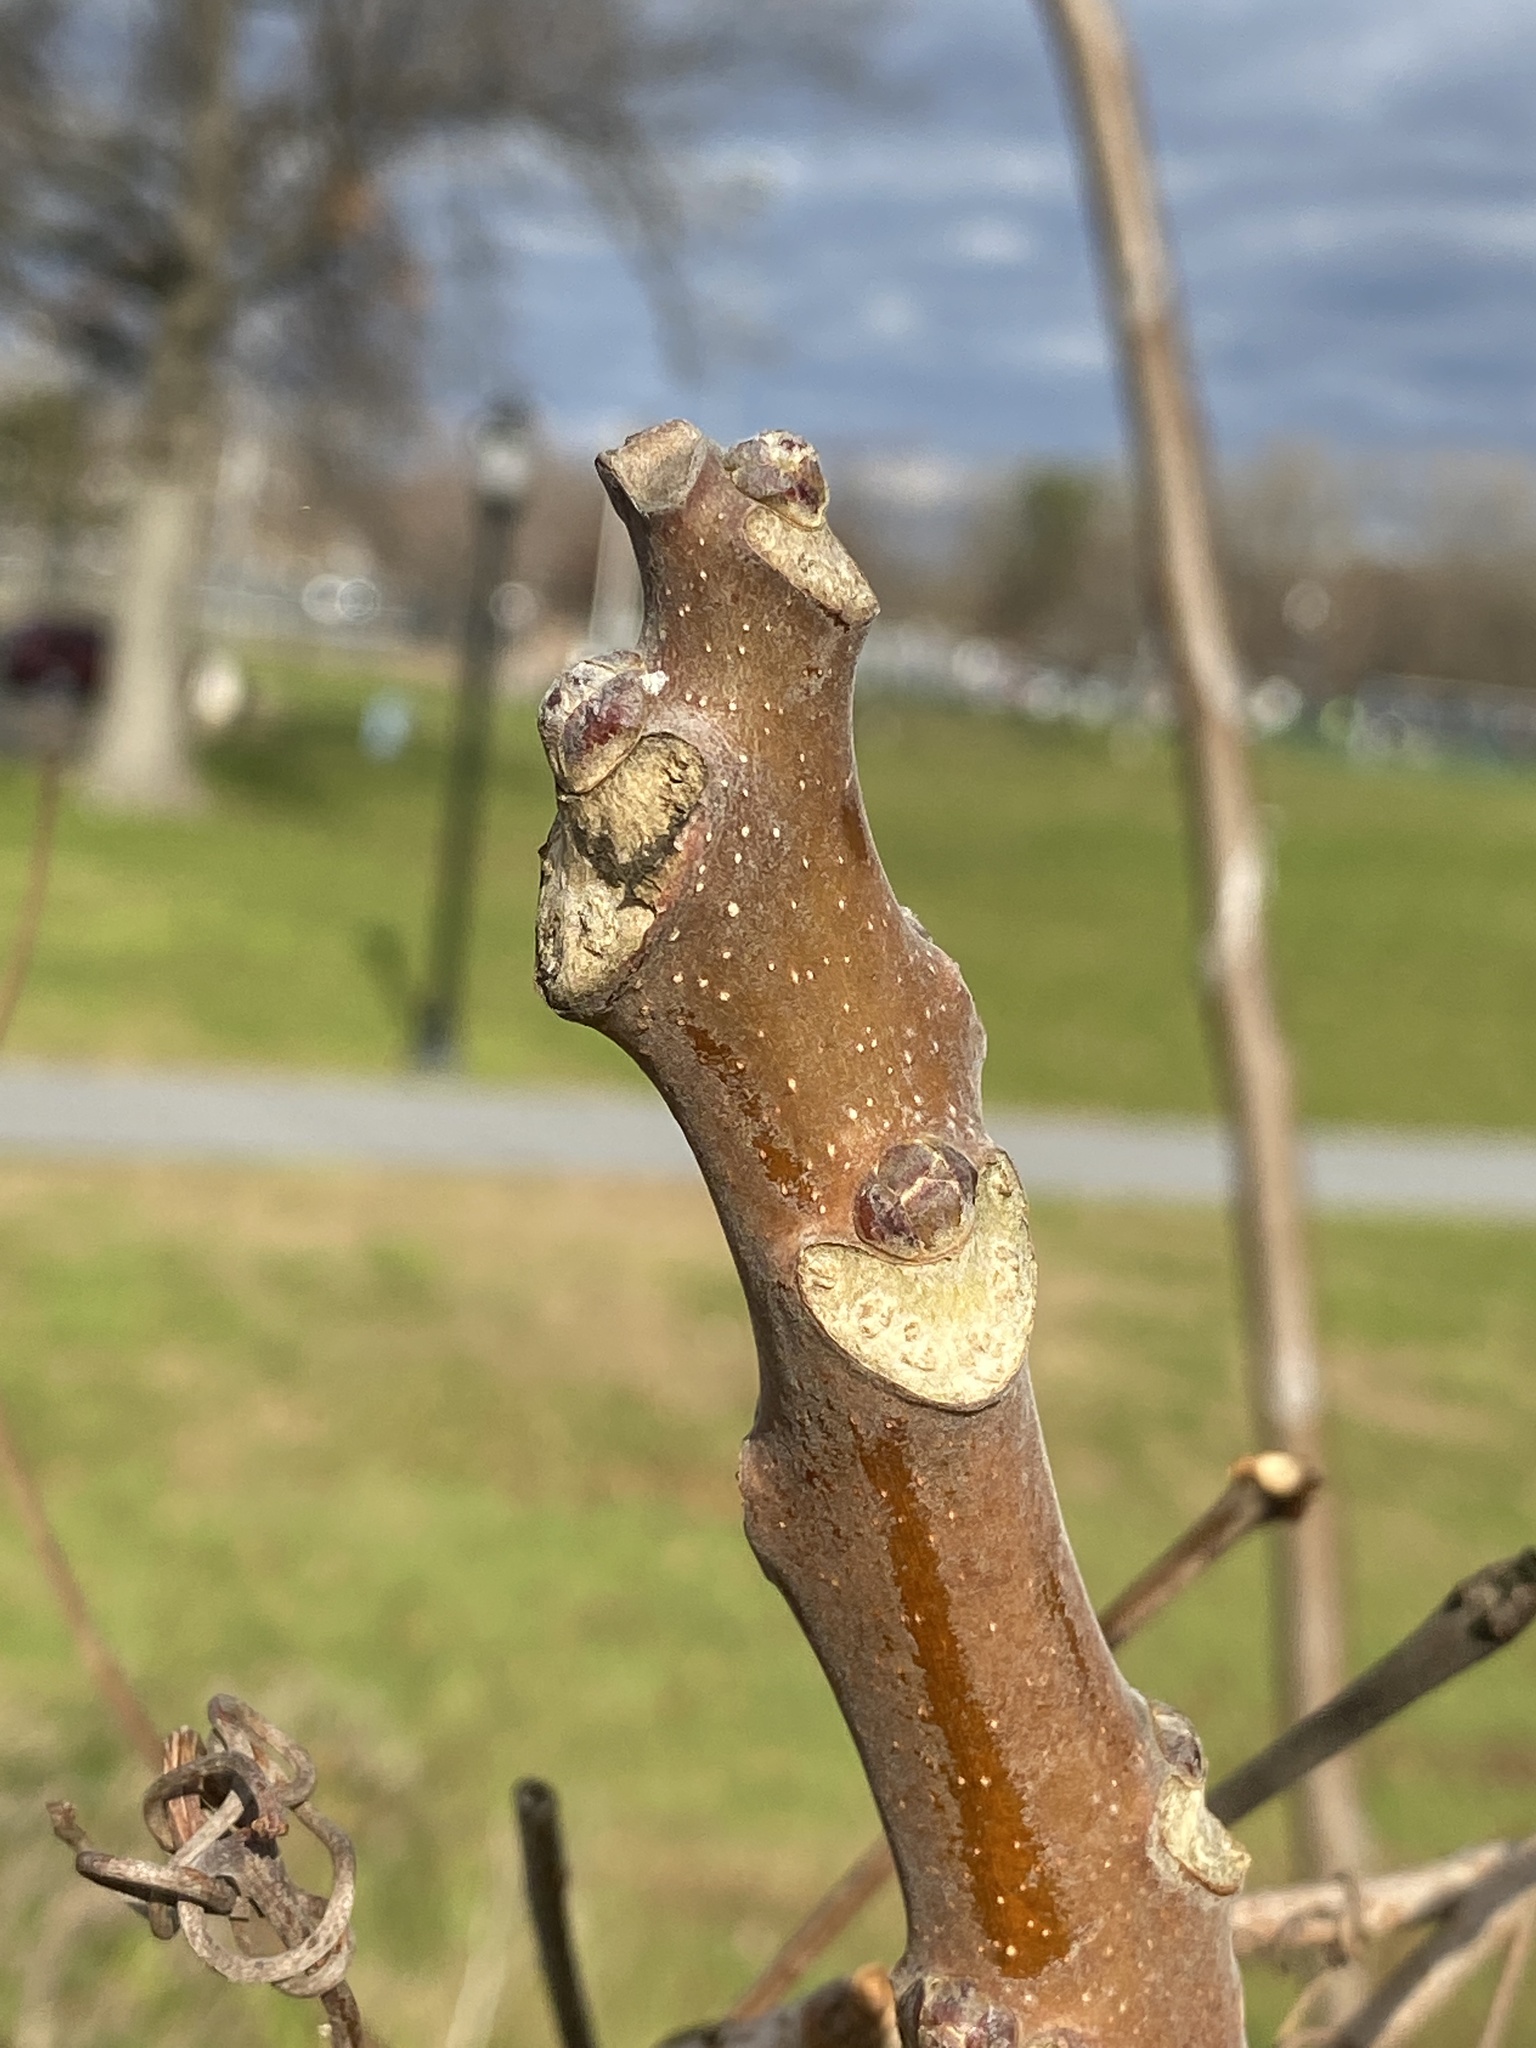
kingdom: Plantae
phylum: Tracheophyta
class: Magnoliopsida
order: Sapindales
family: Simaroubaceae
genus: Ailanthus
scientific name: Ailanthus altissima
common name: Tree-of-heaven
